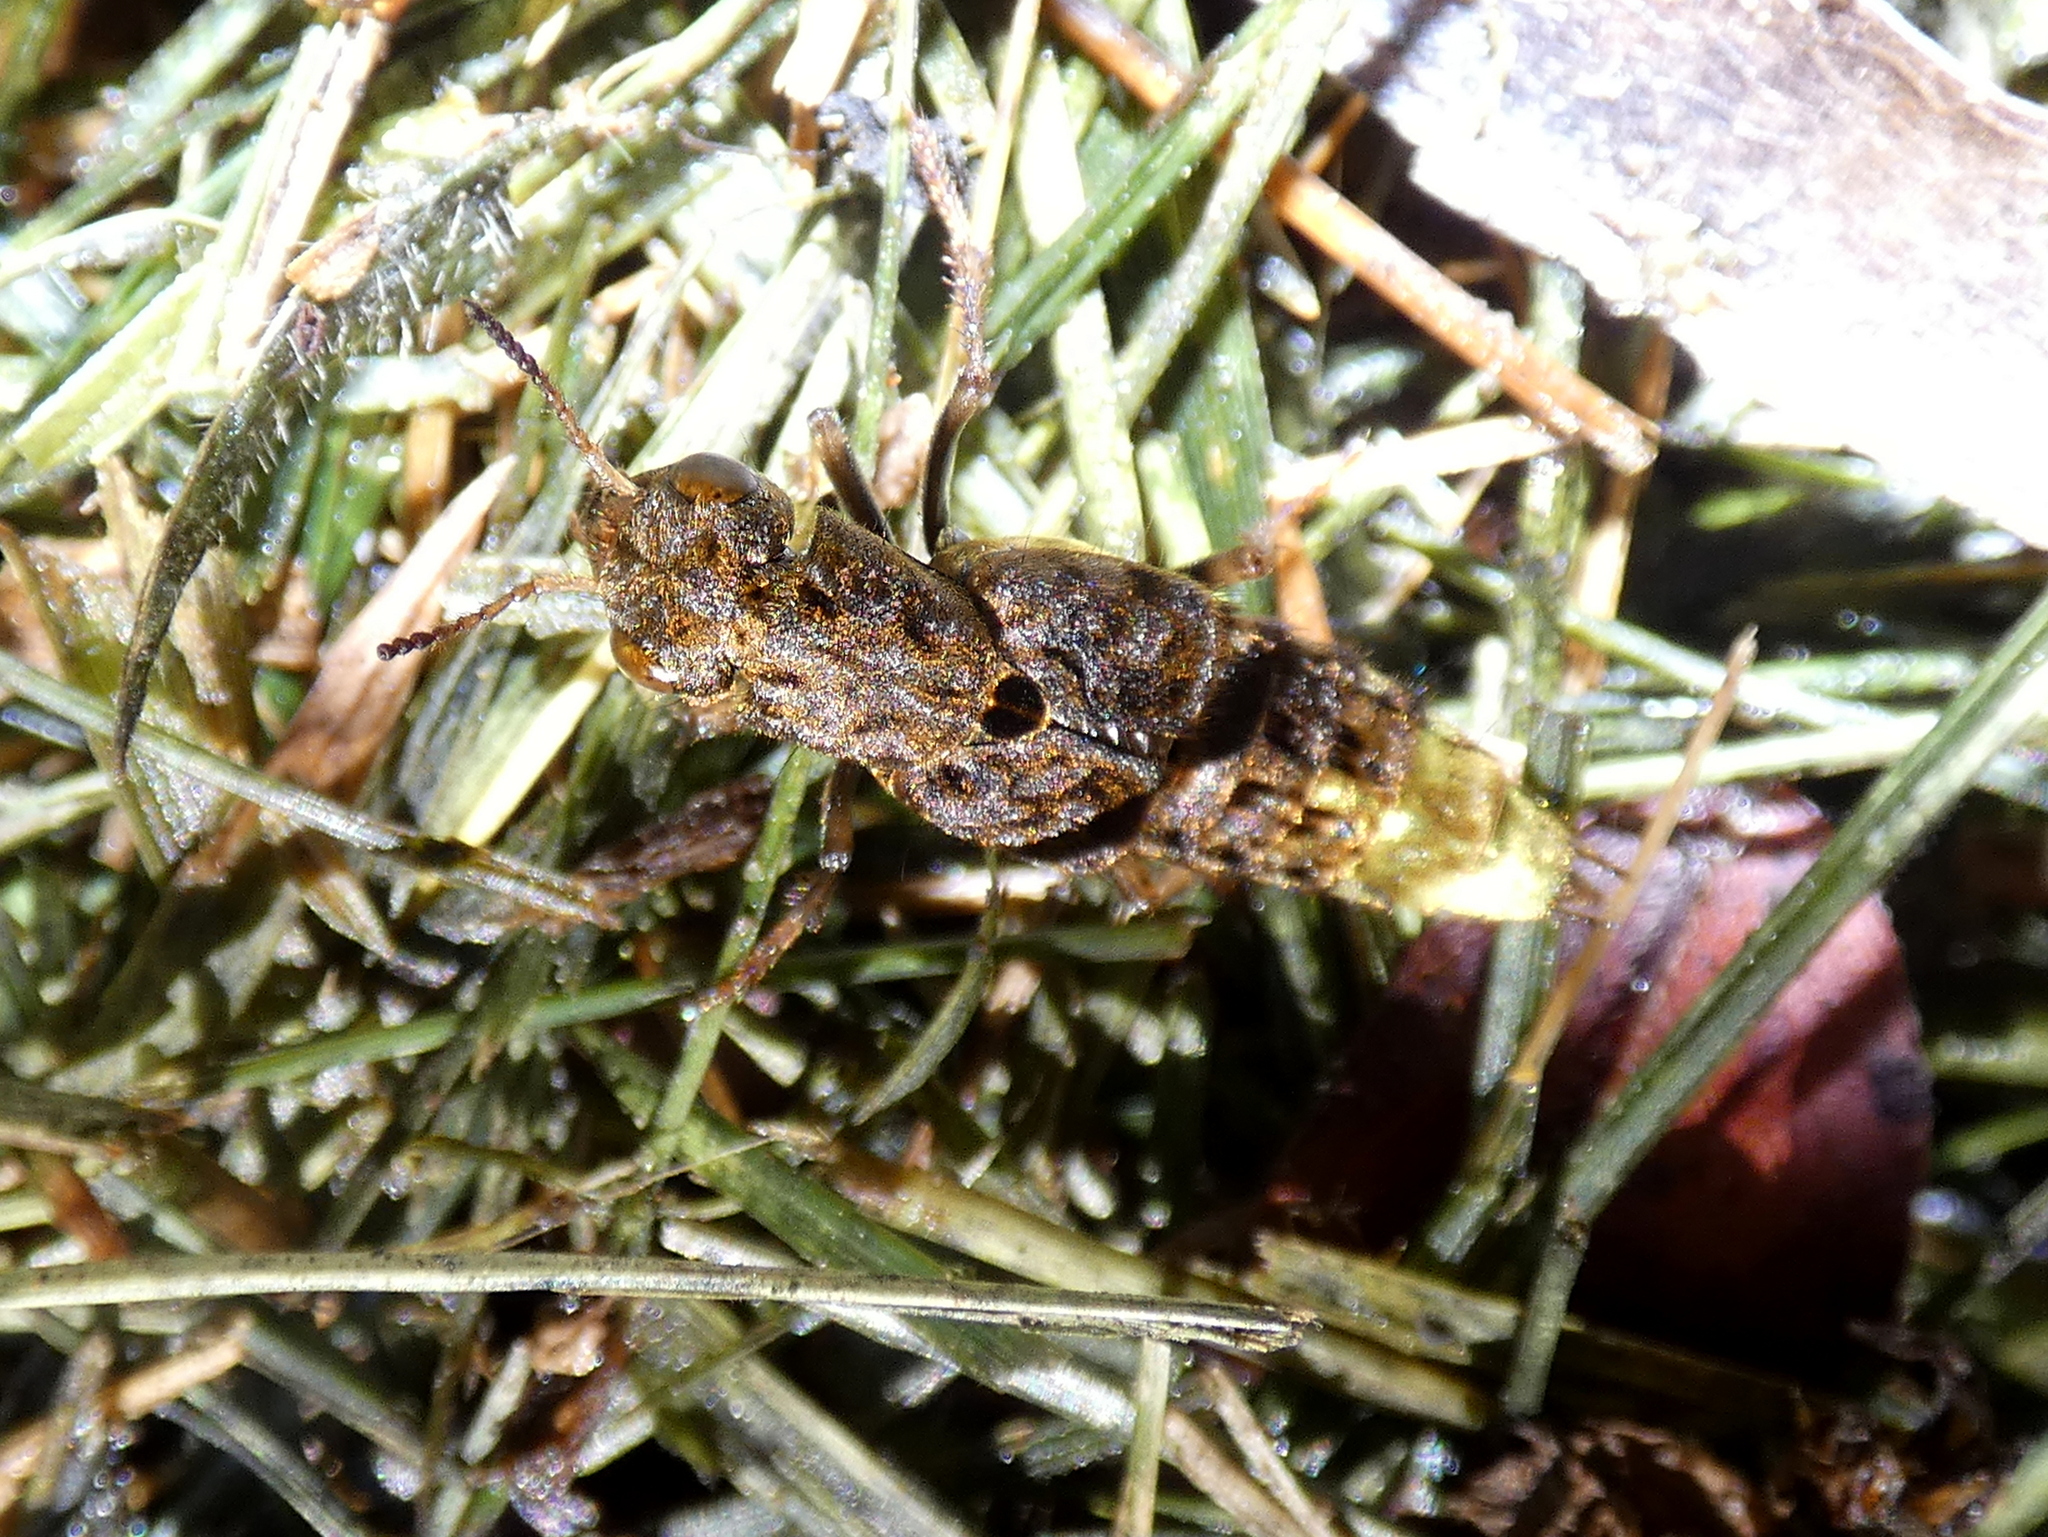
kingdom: Animalia
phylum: Arthropoda
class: Insecta
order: Coleoptera
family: Staphylinidae
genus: Ontholestes
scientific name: Ontholestes cingulatus
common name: Gold-and-brown rove beetle
